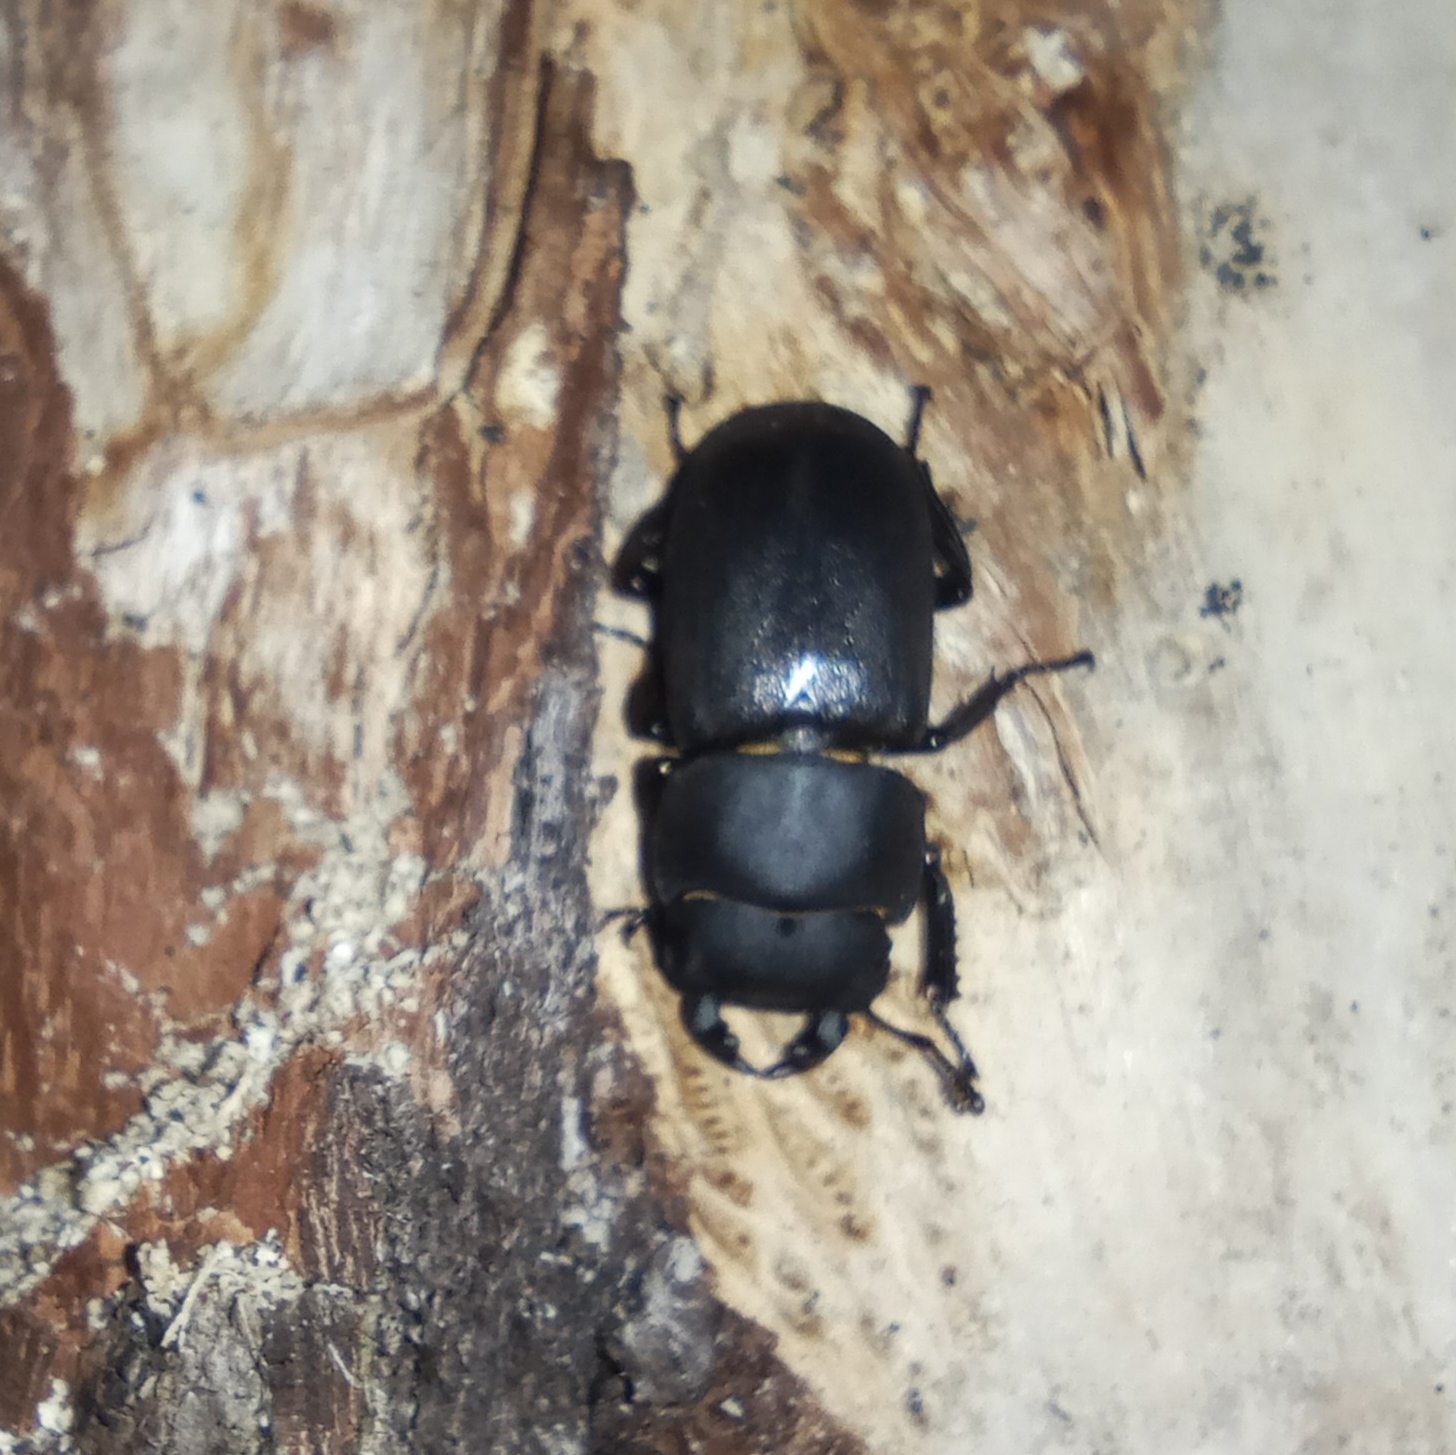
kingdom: Animalia
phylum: Arthropoda
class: Insecta
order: Coleoptera
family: Lucanidae
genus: Dorcus
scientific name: Dorcus parallelipipedus
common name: Lesser stag beetle
